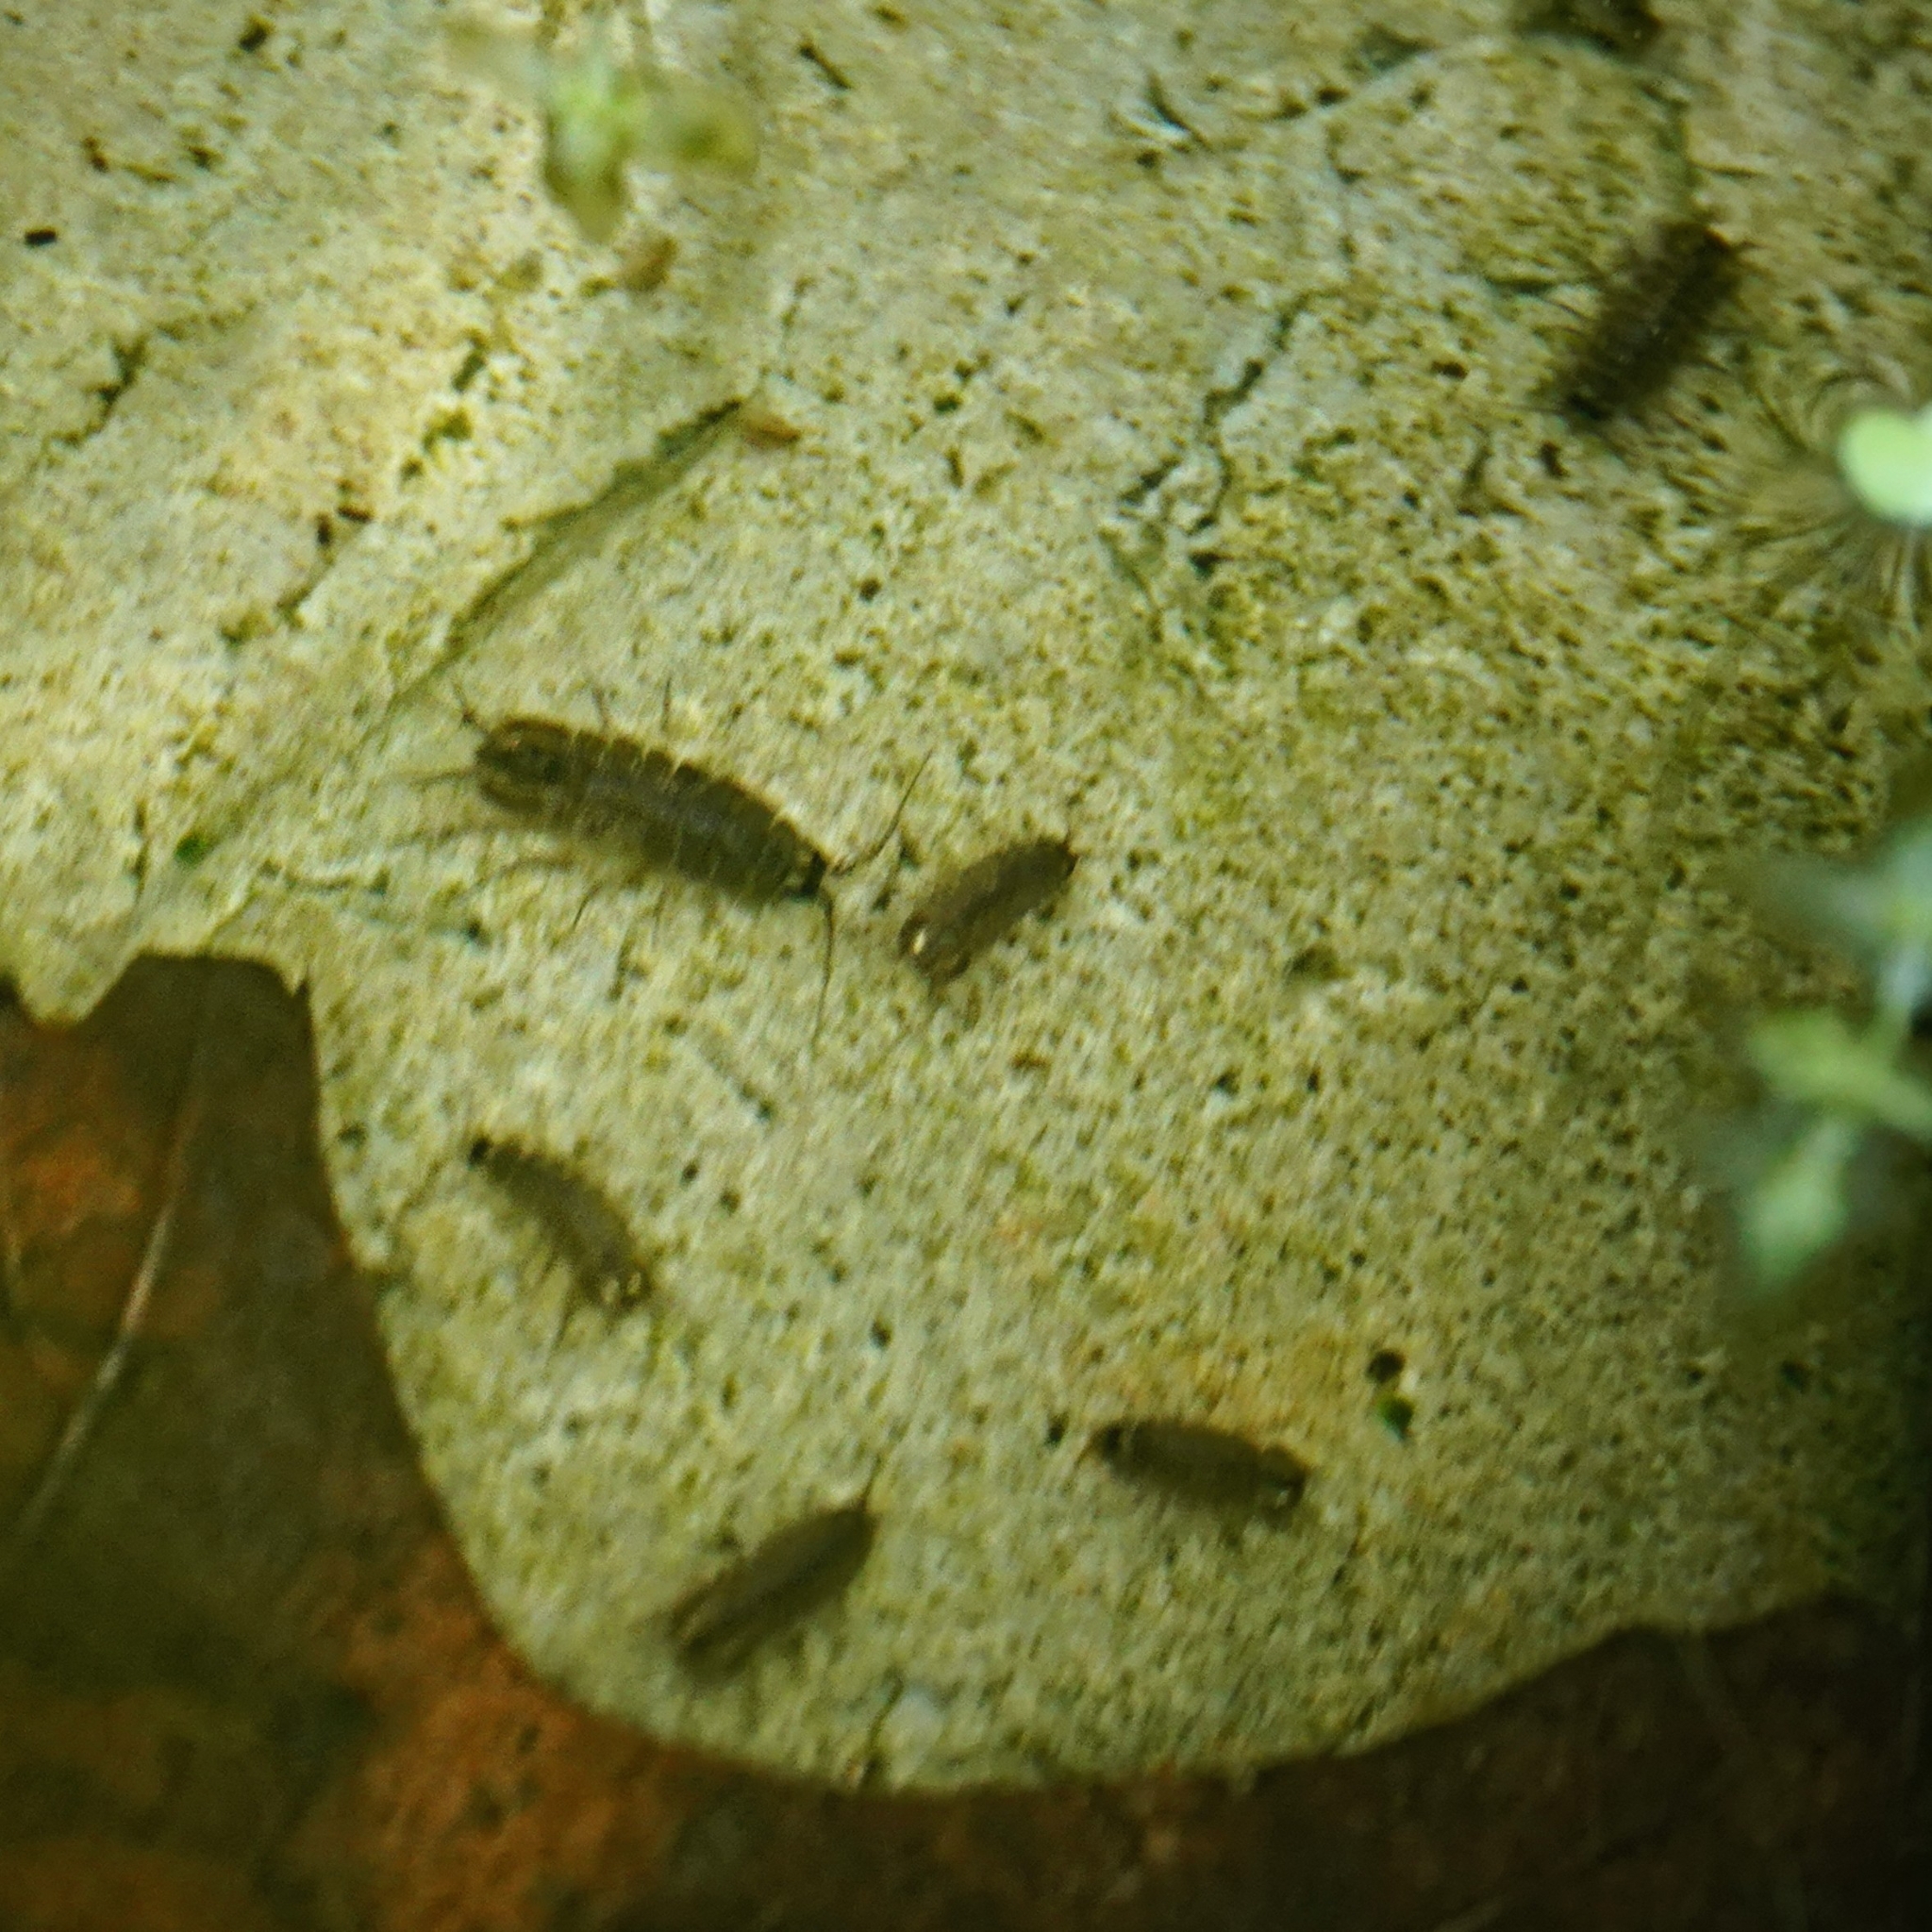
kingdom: Animalia
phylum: Arthropoda
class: Malacostraca
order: Isopoda
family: Asellidae
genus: Asellus
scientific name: Asellus aquaticus
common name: Water hog lice/slaters
